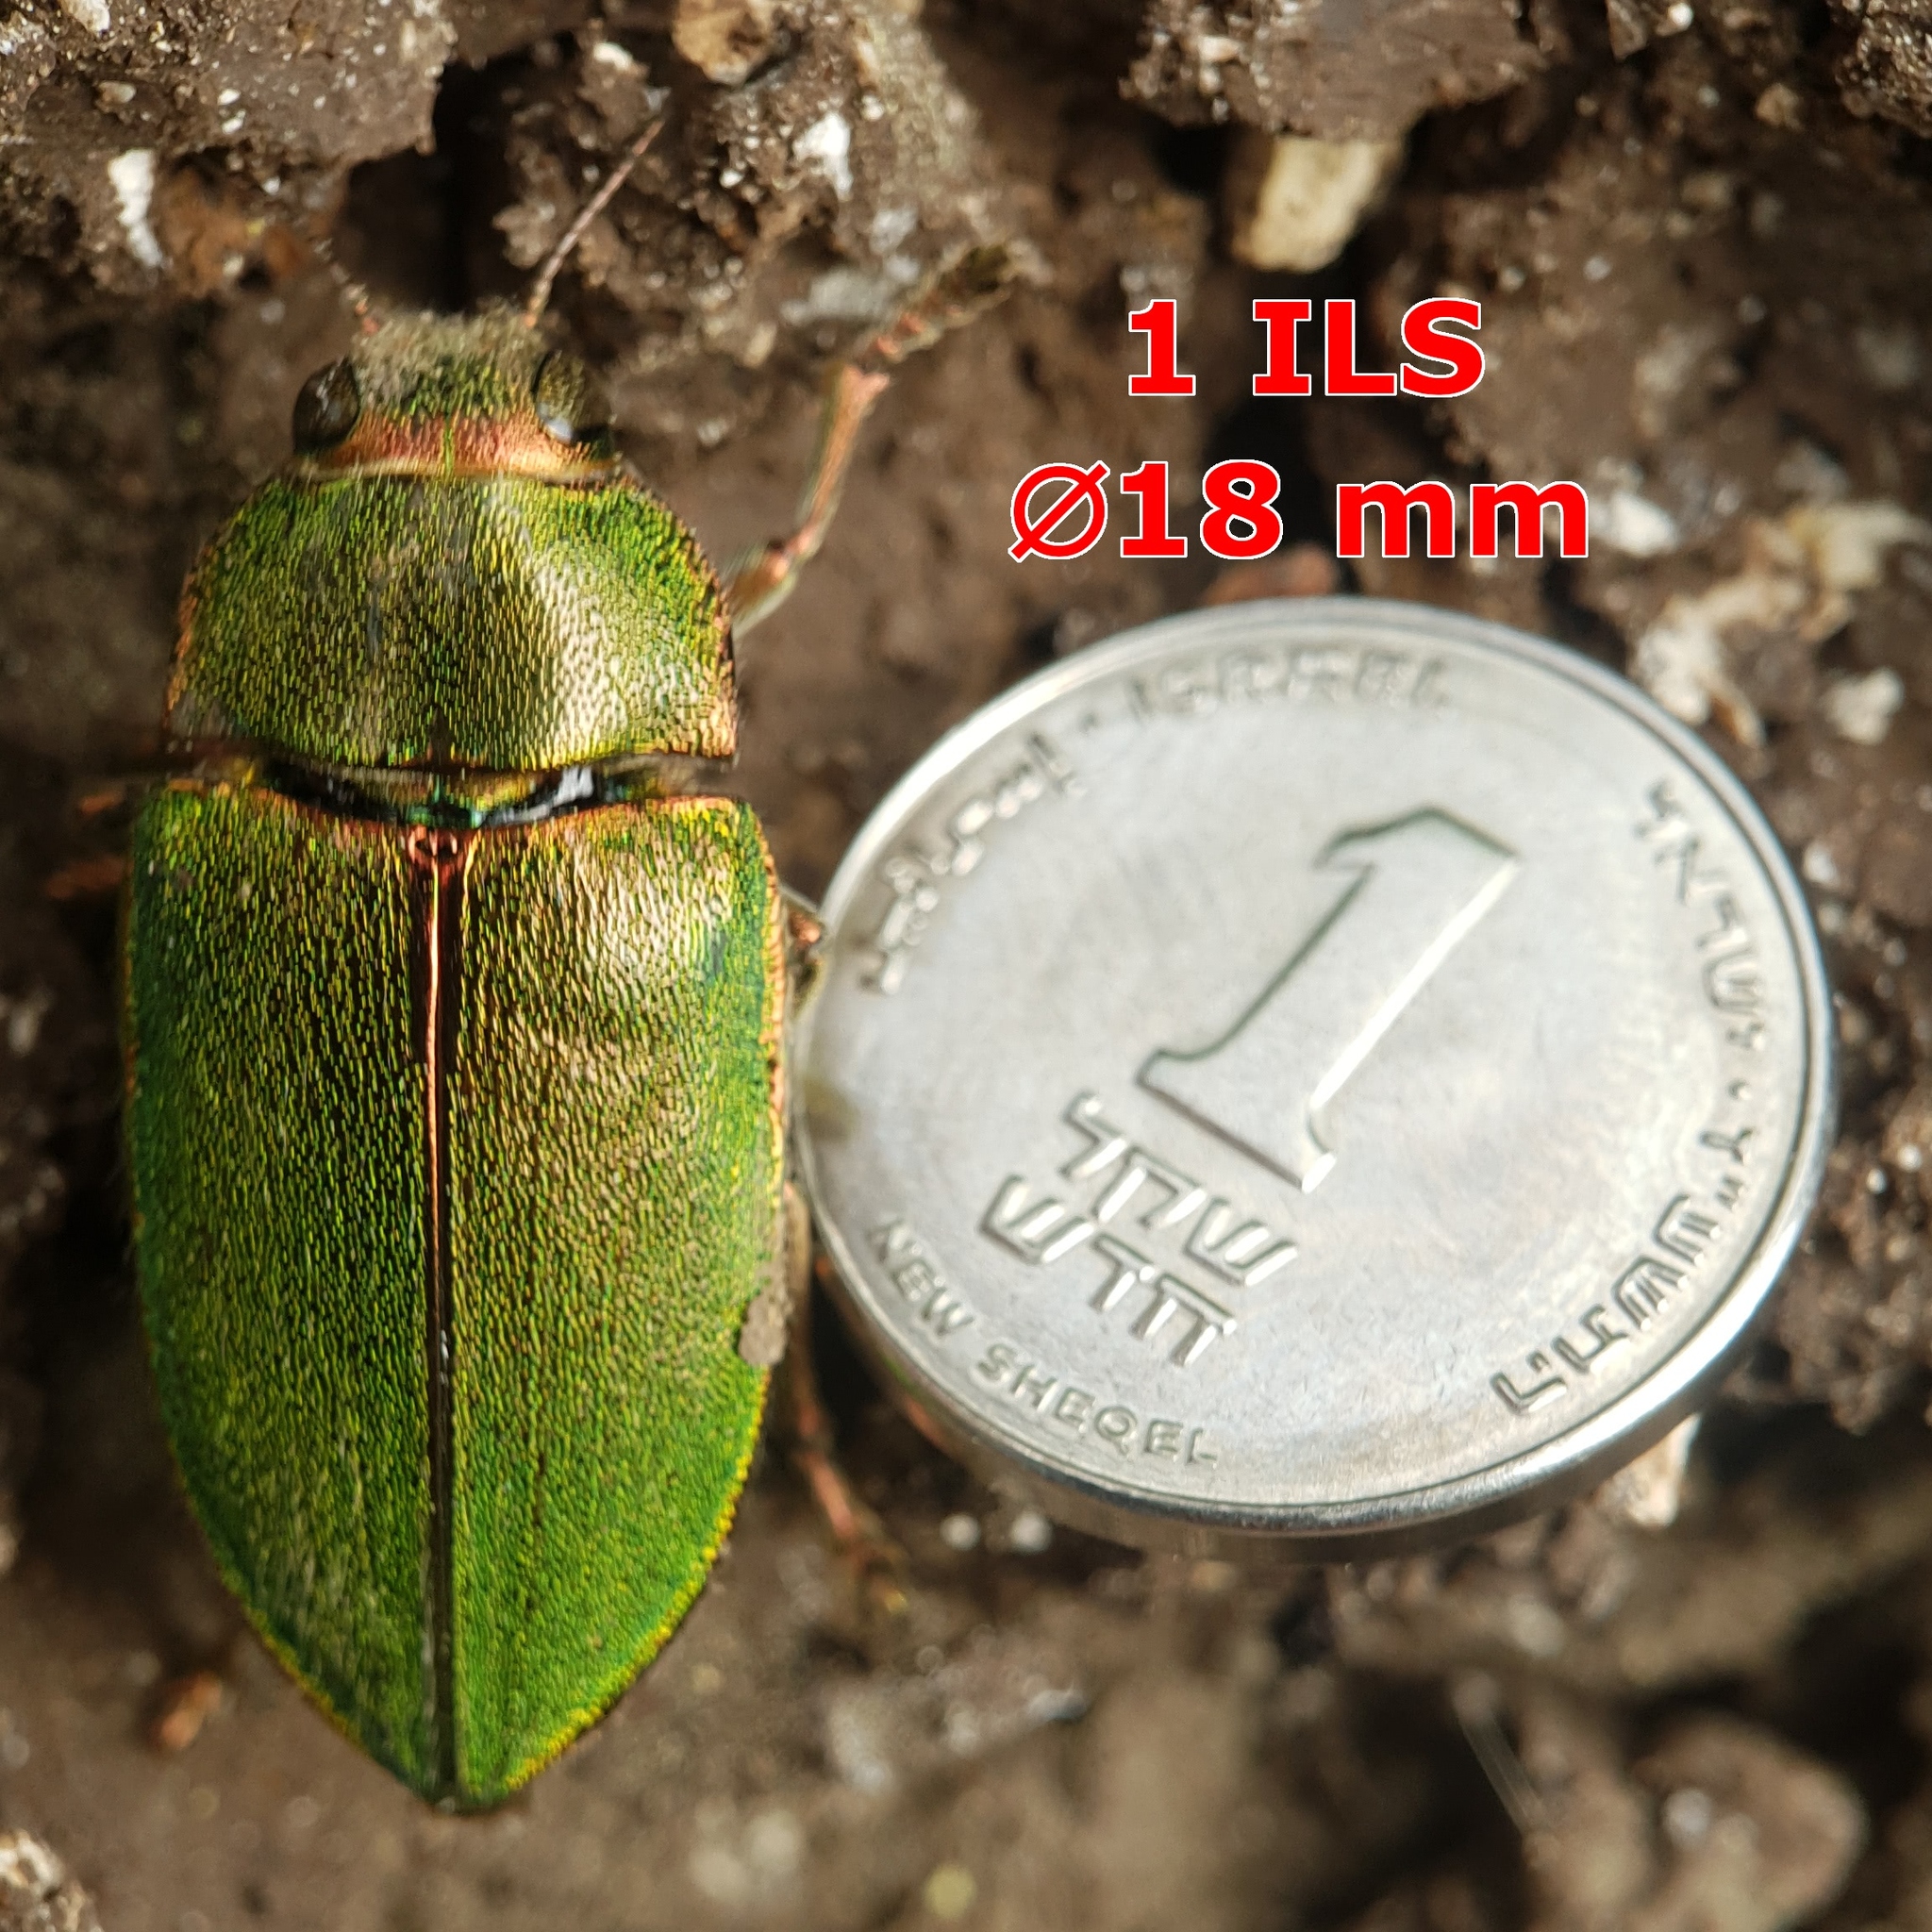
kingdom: Animalia
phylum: Arthropoda
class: Insecta
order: Coleoptera
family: Buprestidae
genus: Perotis
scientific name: Perotis chloranus
